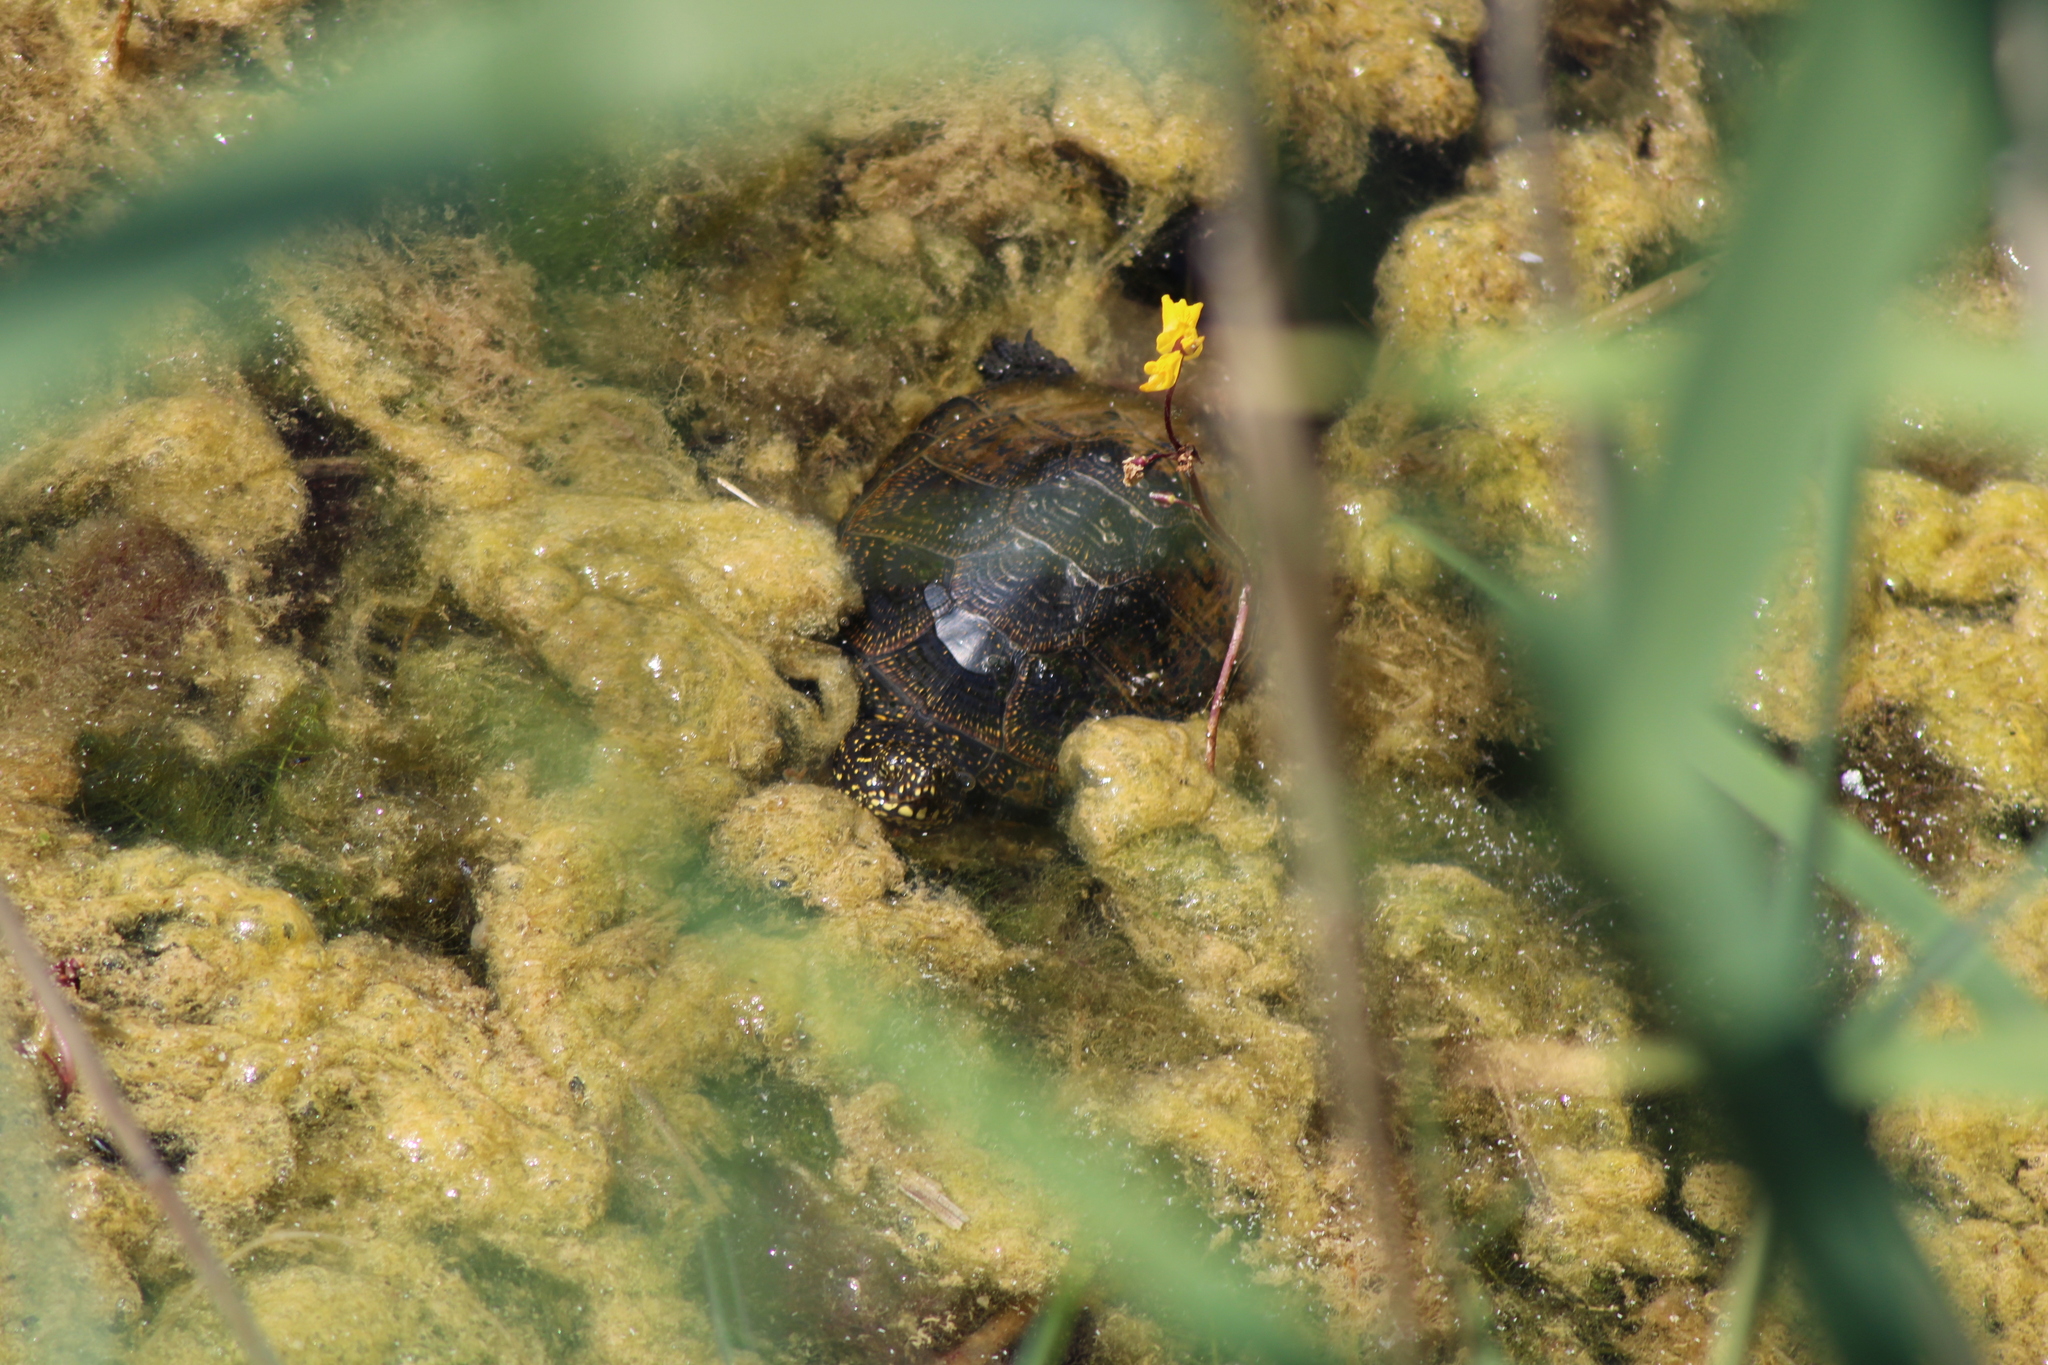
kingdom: Animalia
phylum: Chordata
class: Testudines
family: Emydidae
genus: Emys
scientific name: Emys orbicularis
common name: European pond turtle
